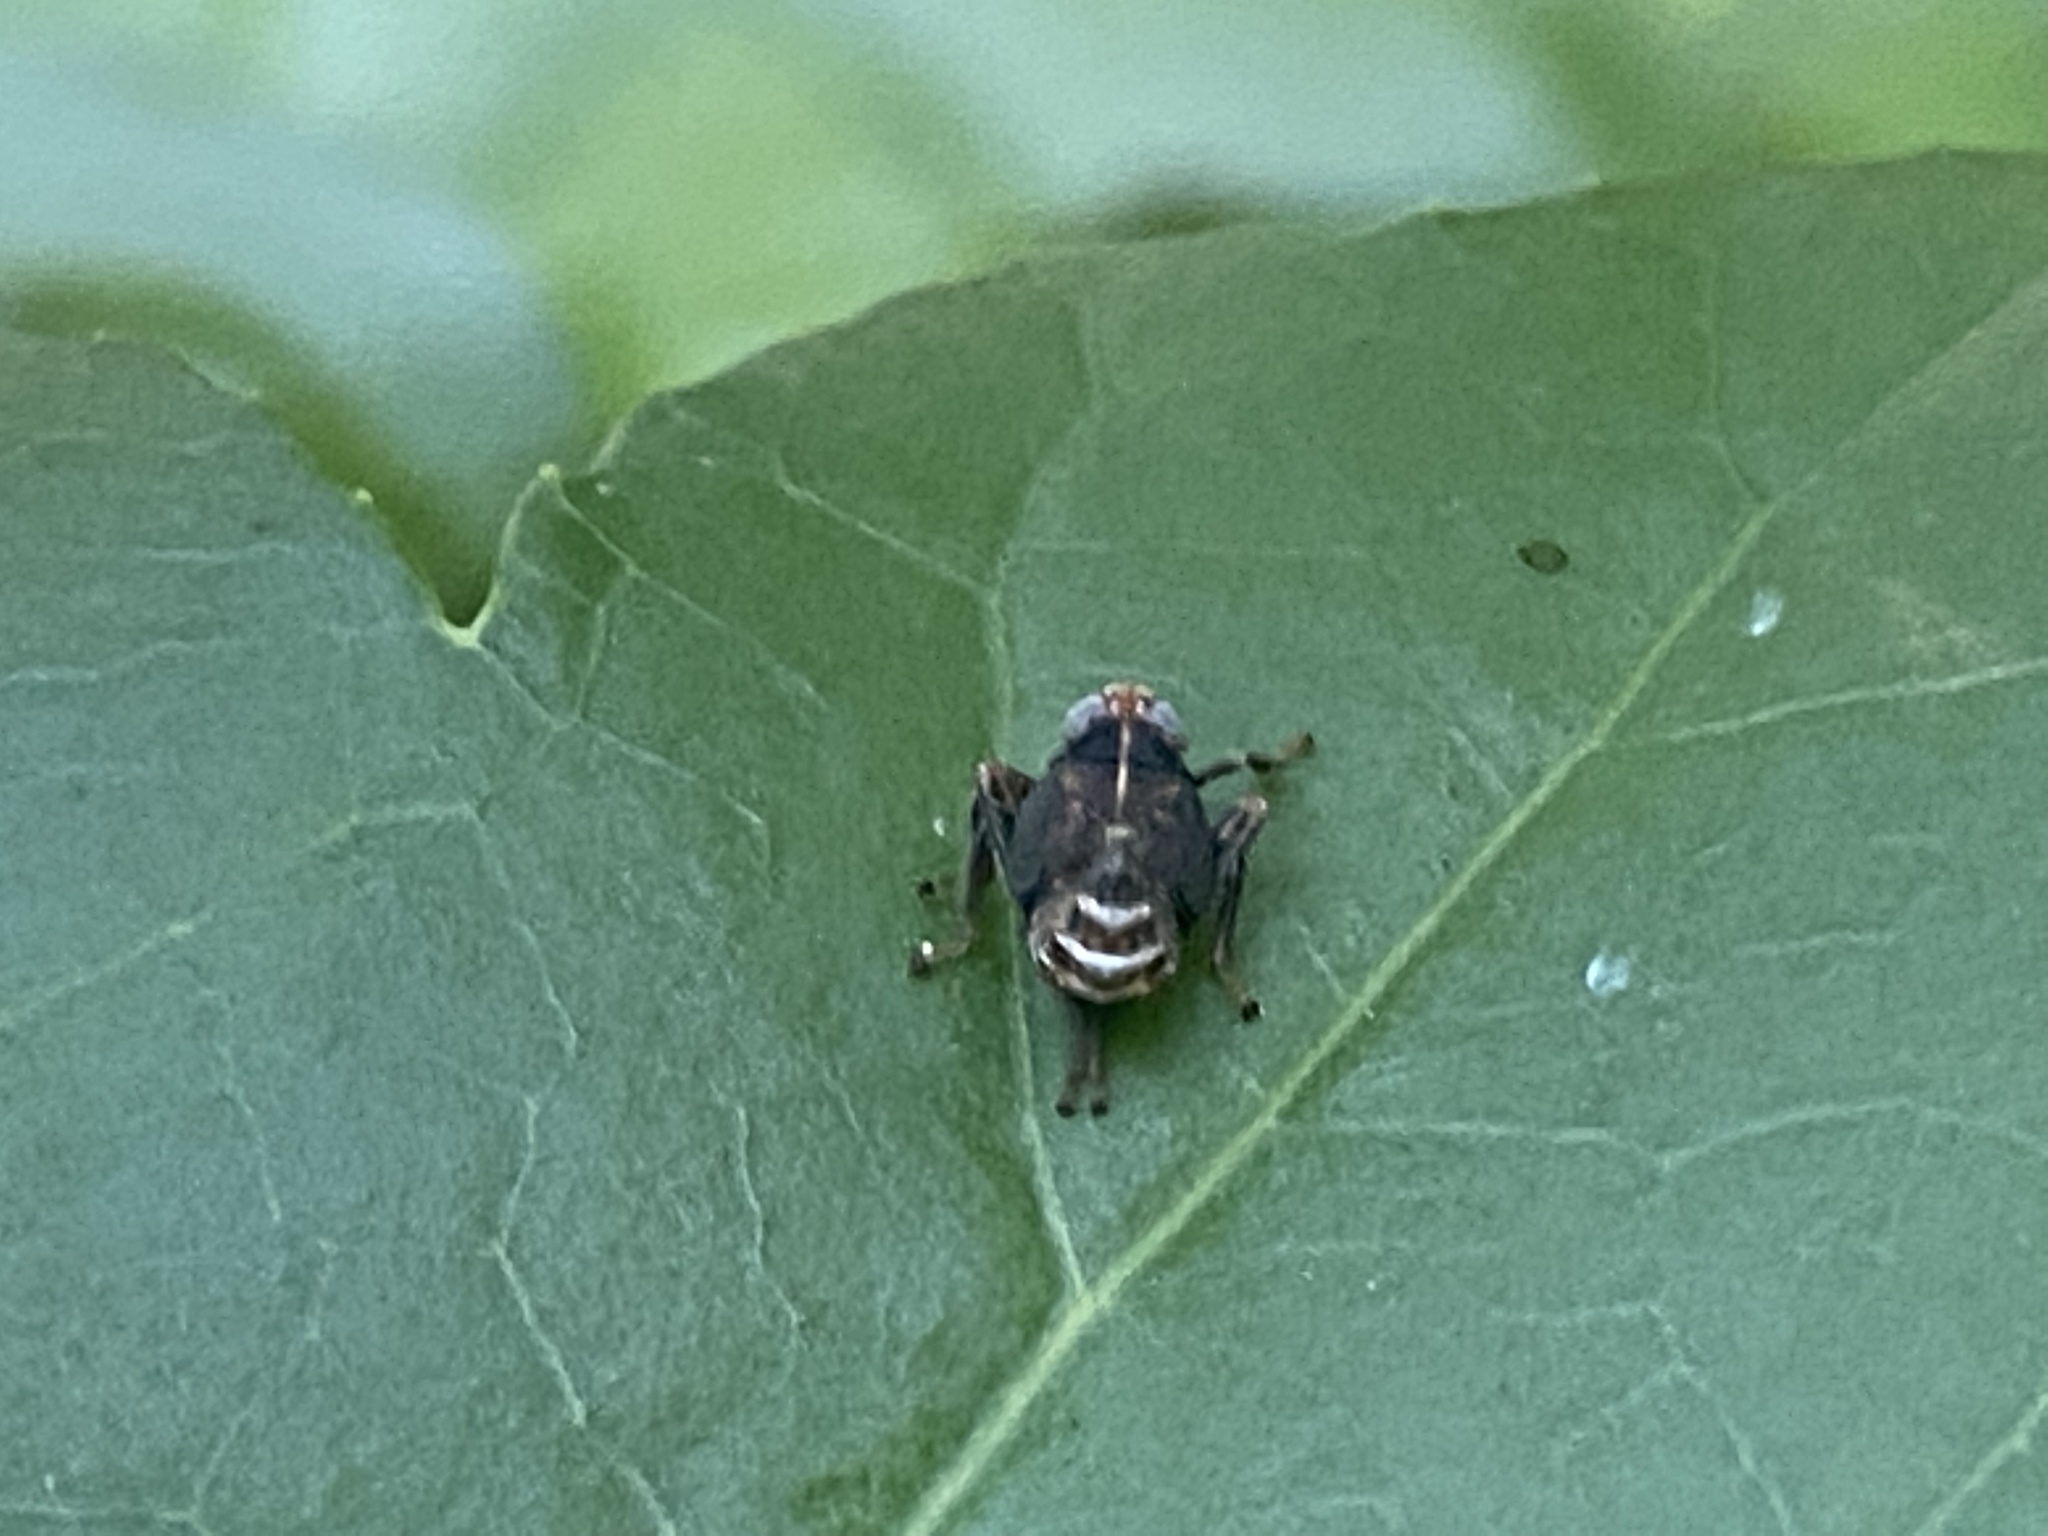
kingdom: Animalia
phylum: Arthropoda
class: Insecta
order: Hemiptera
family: Cicadellidae
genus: Jikradia
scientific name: Jikradia olitoria
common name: Coppery leafhopper
